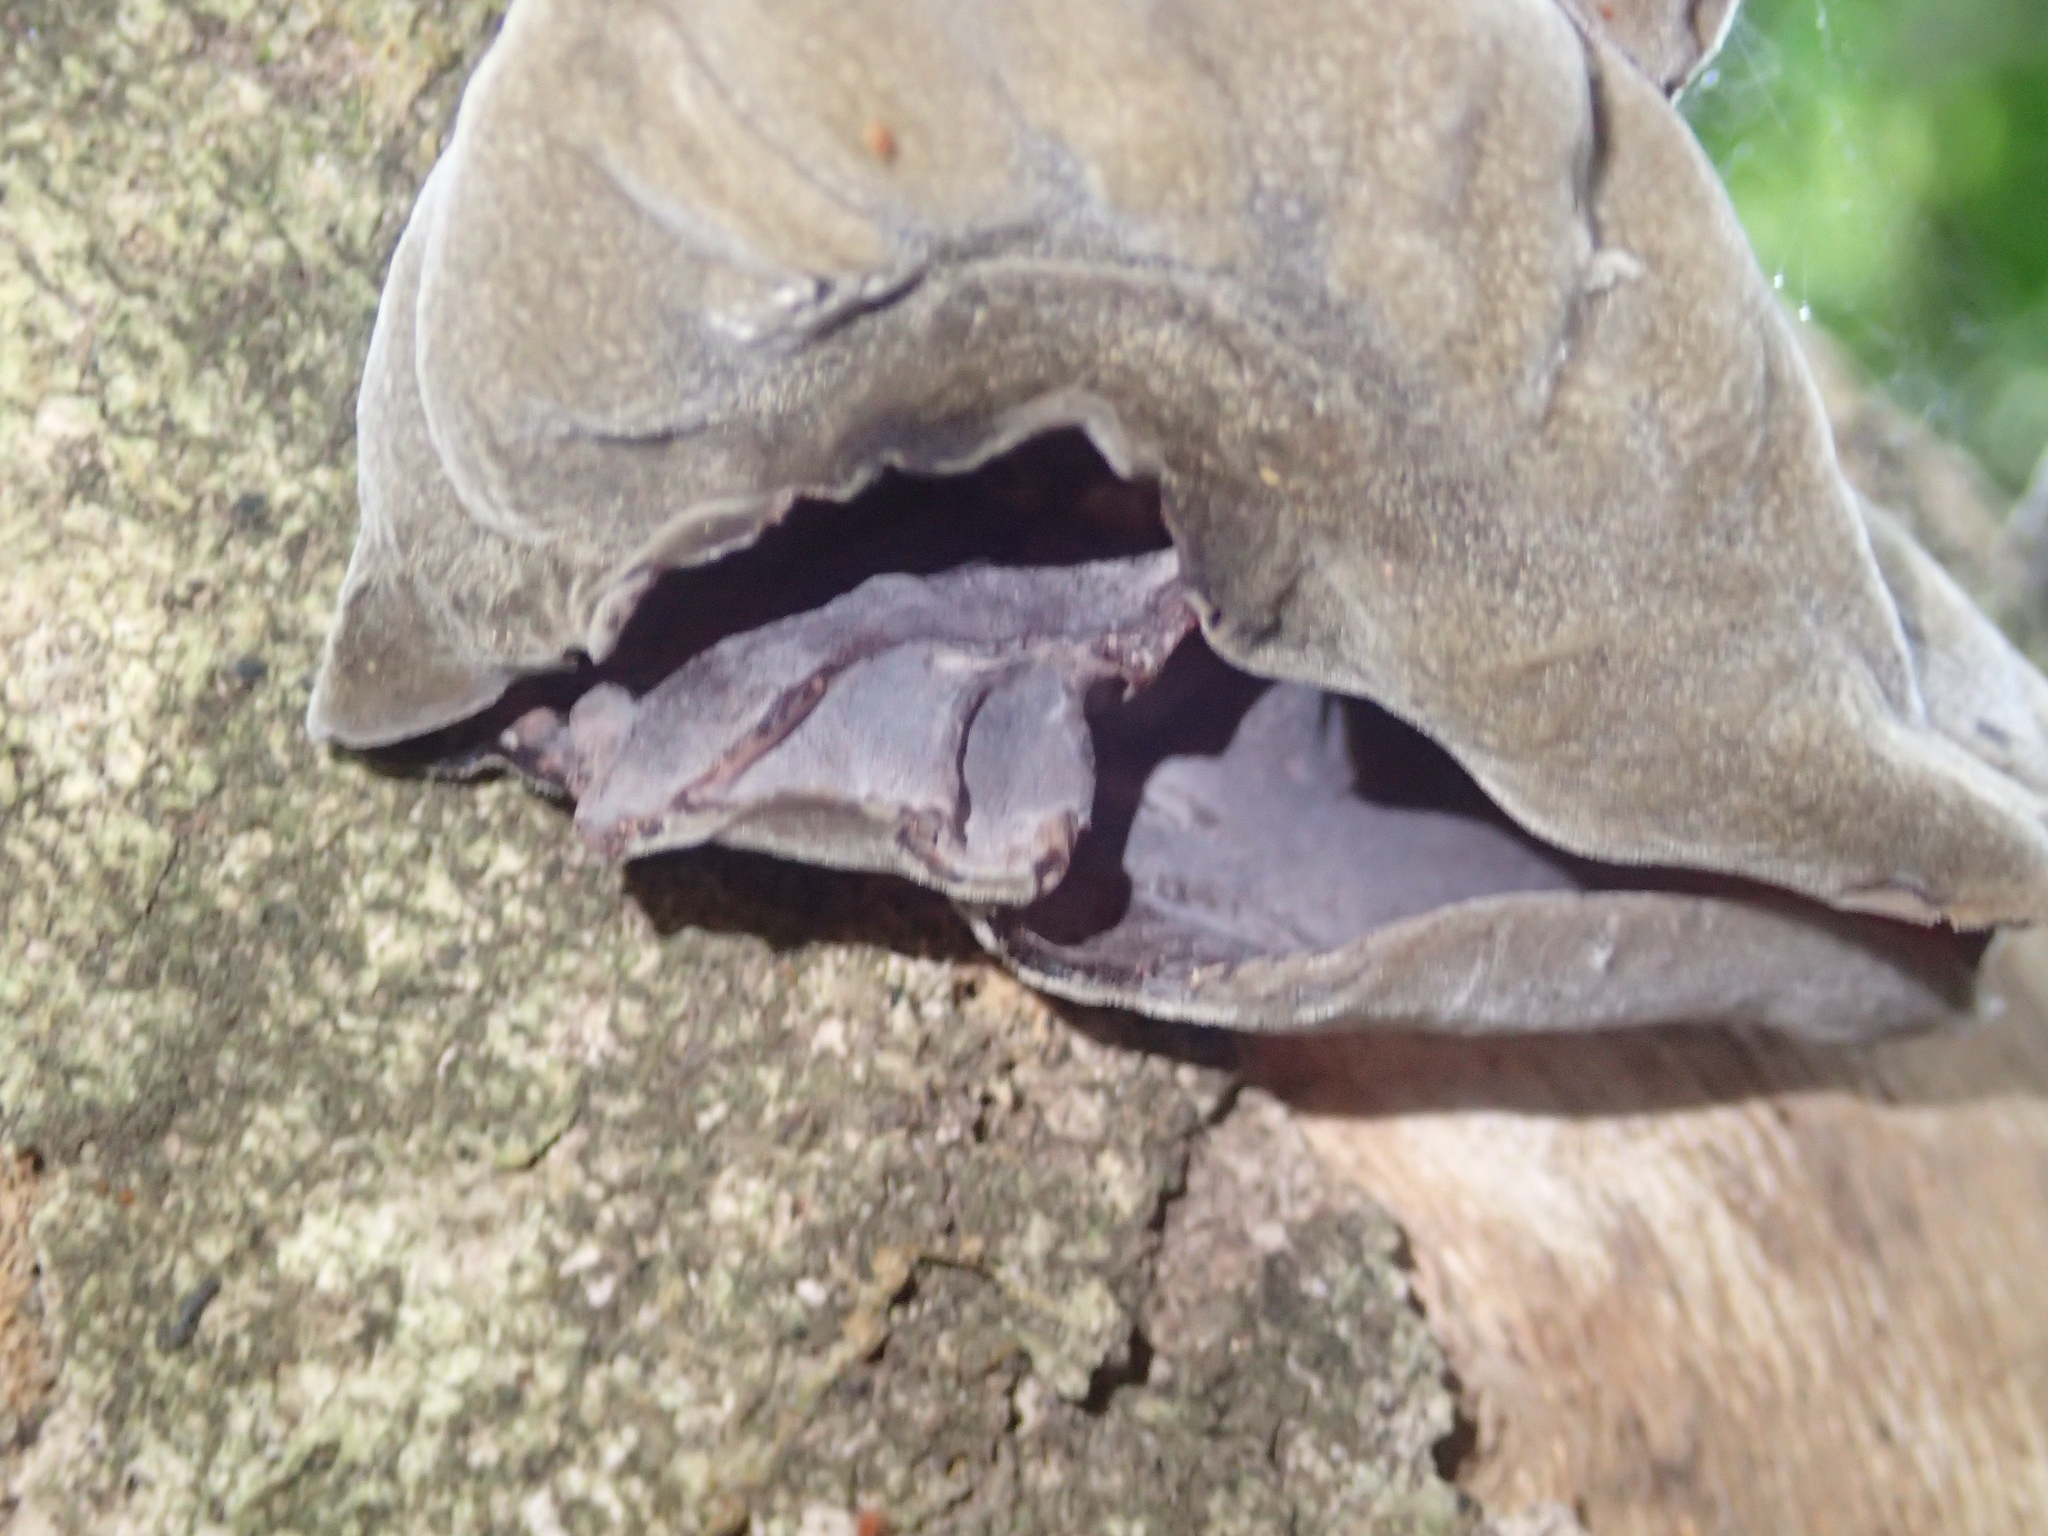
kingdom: Fungi
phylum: Basidiomycota
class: Agaricomycetes
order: Auriculariales
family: Auriculariaceae
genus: Auricularia
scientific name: Auricularia cornea
